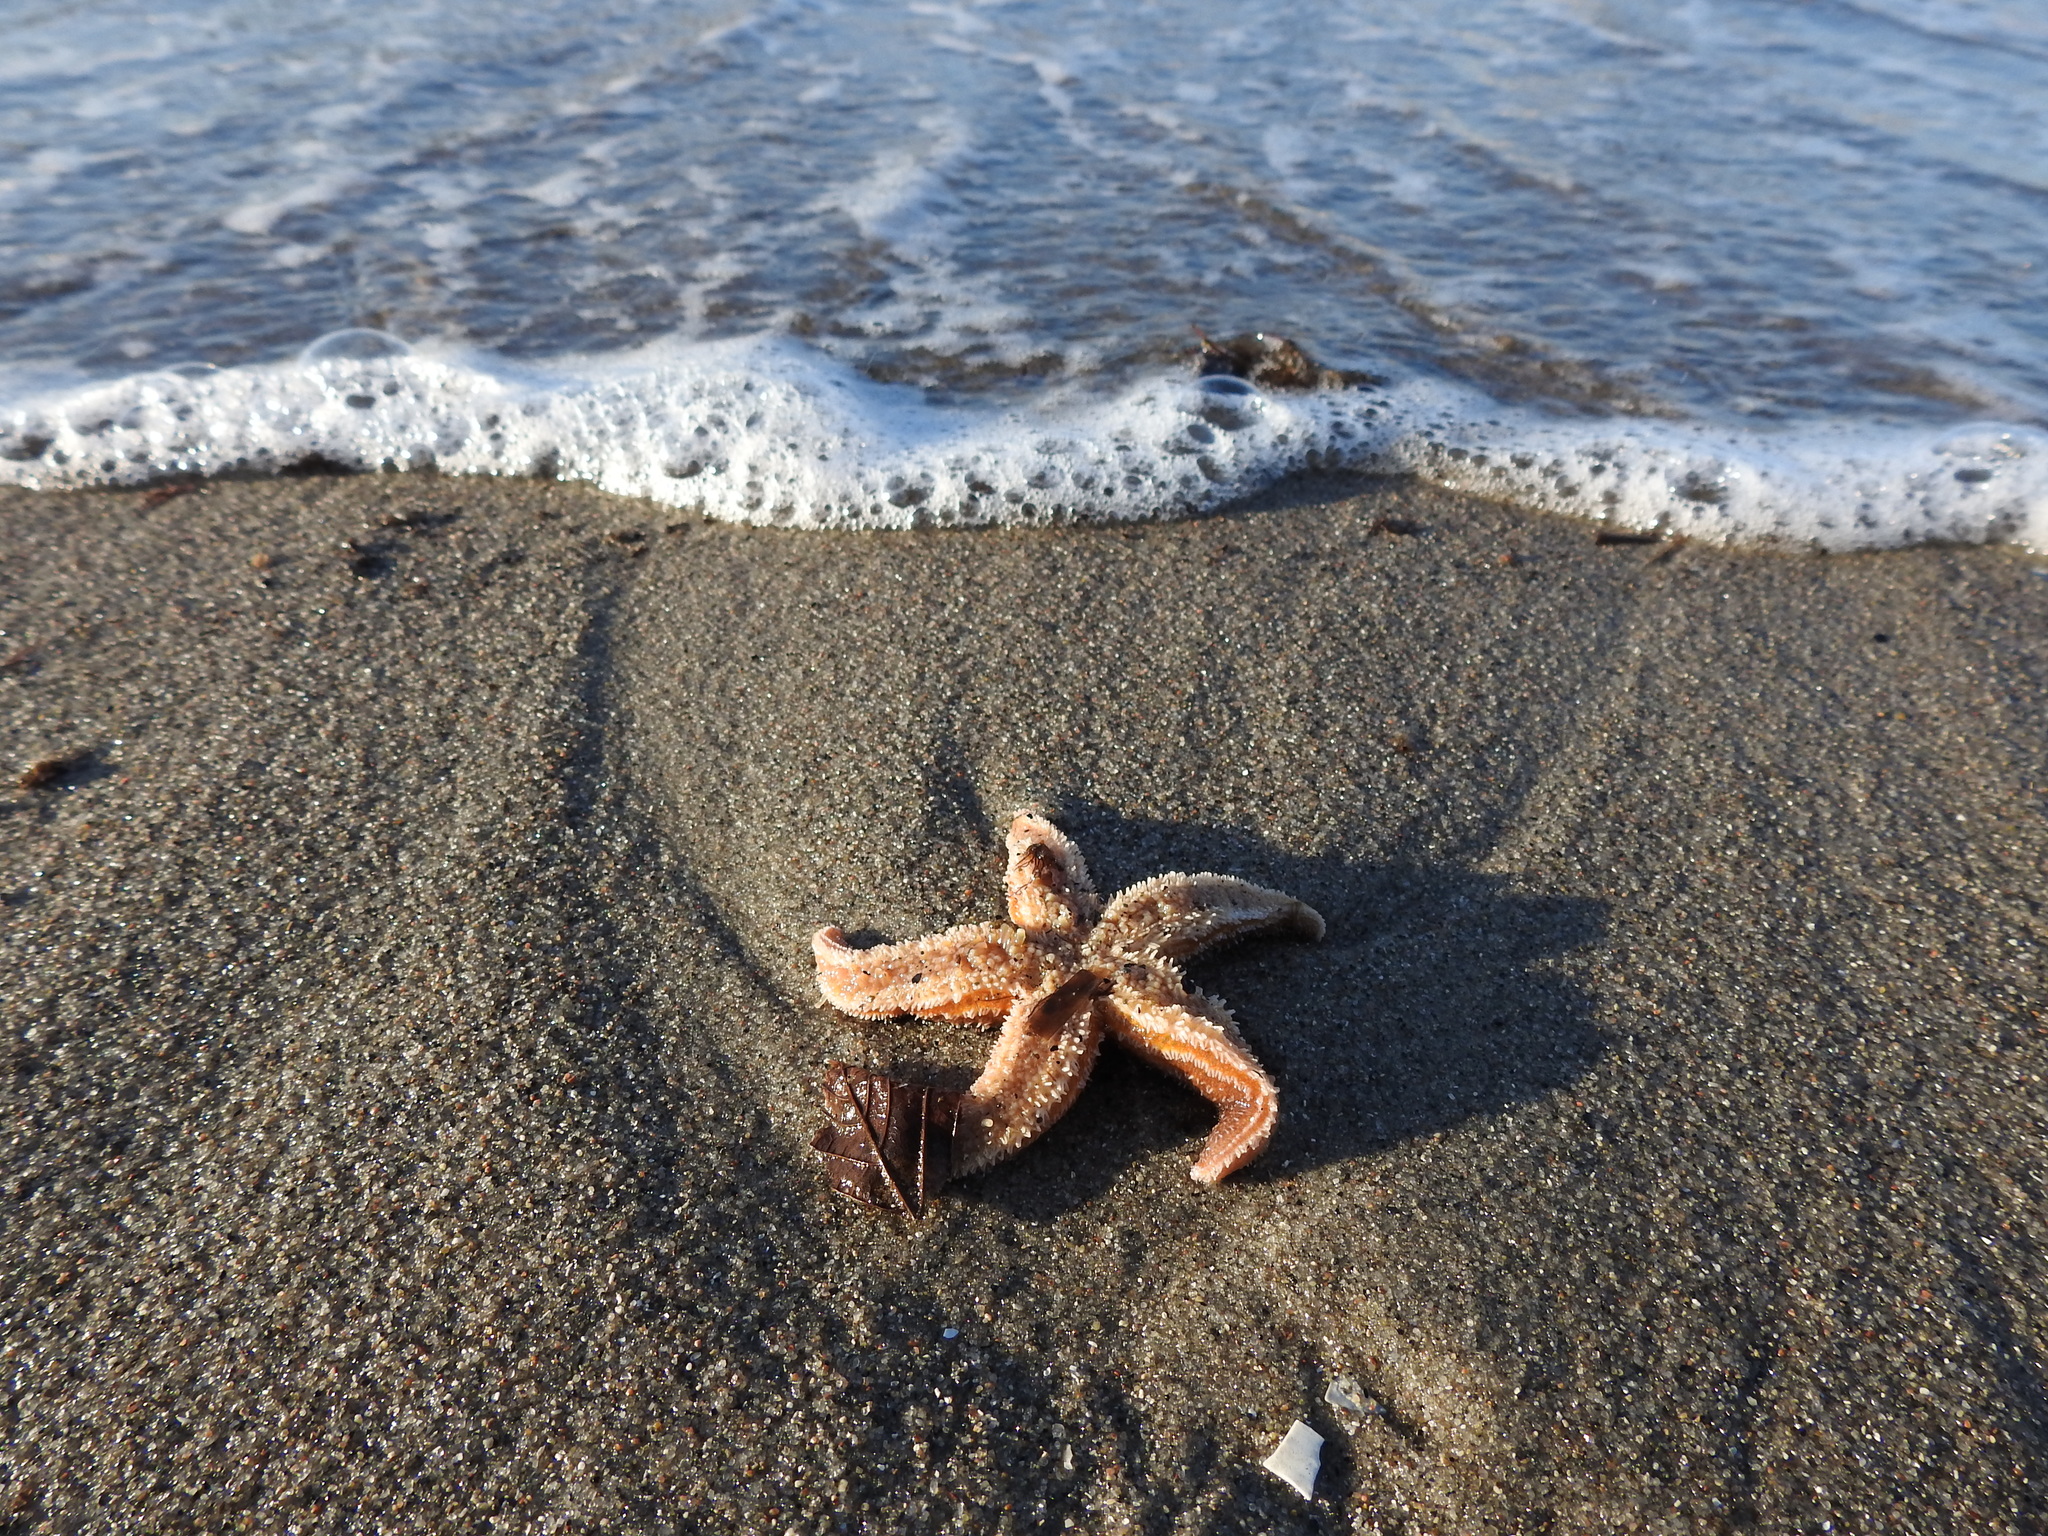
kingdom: Animalia
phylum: Echinodermata
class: Asteroidea
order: Forcipulatida
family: Asteriidae
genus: Asterias
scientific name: Asterias rubens
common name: Common starfish
